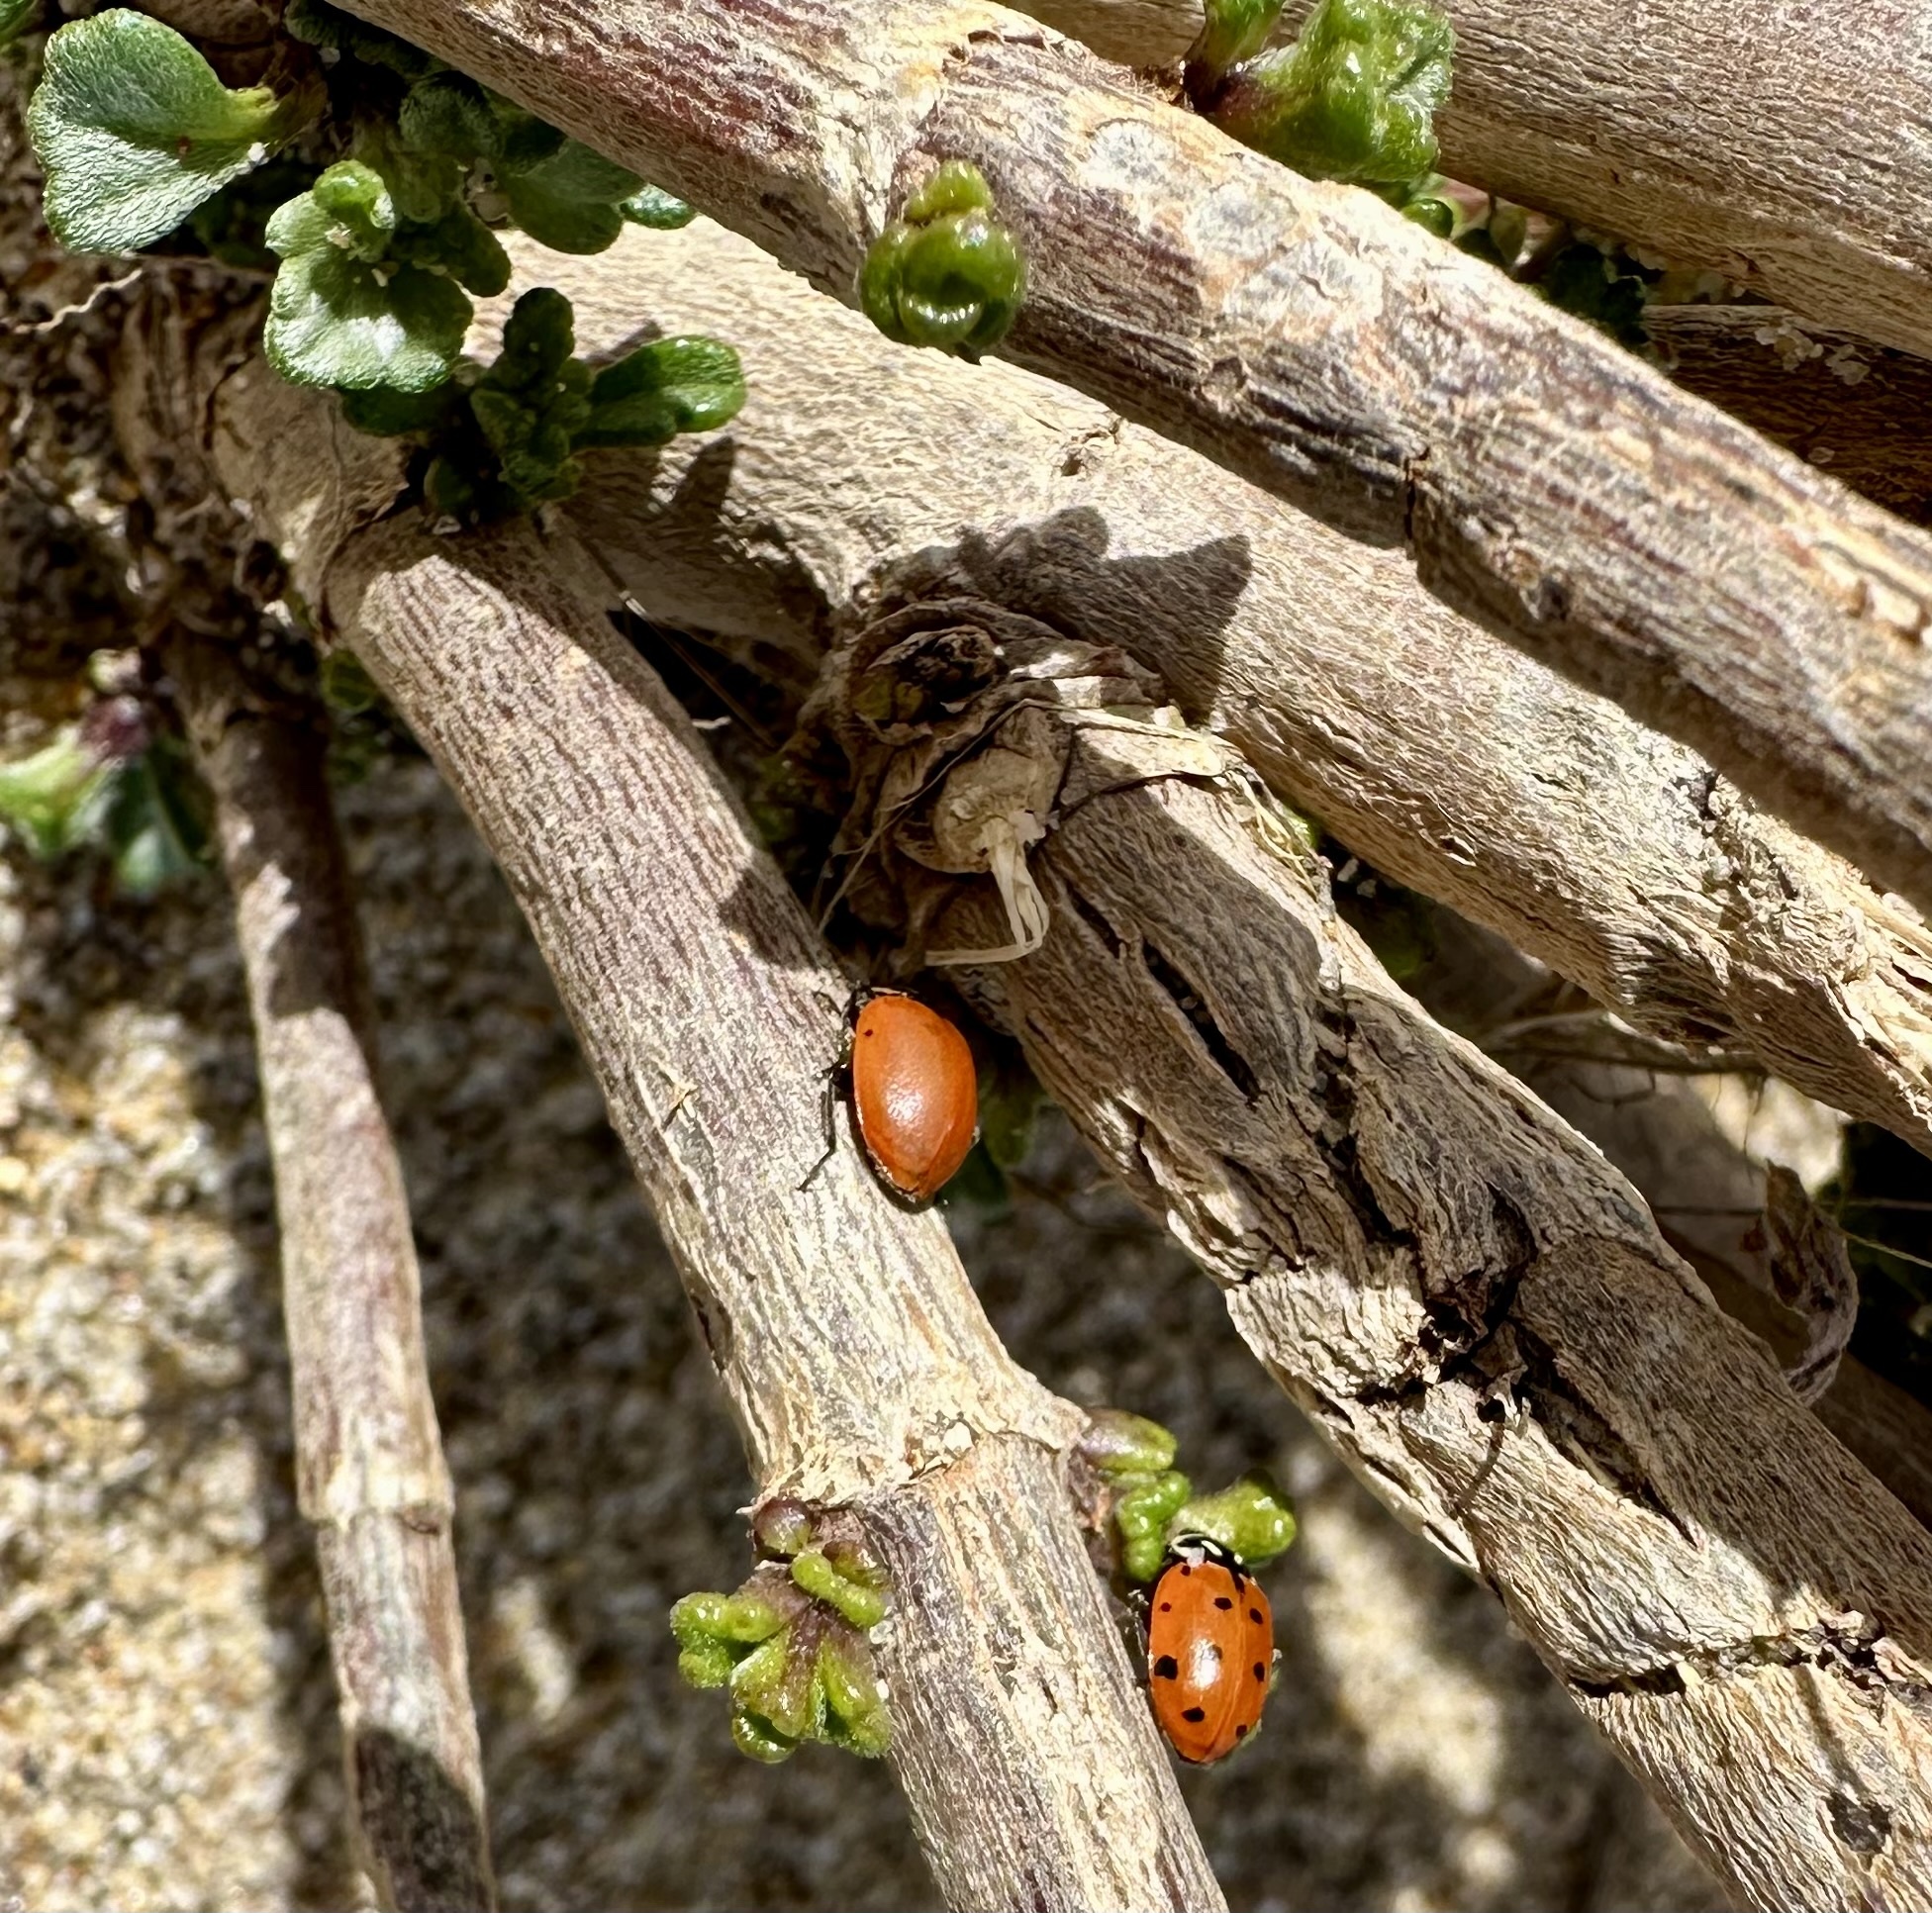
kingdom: Animalia
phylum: Arthropoda
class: Insecta
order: Coleoptera
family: Coccinellidae
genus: Hippodamia
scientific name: Hippodamia convergens
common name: Convergent lady beetle
